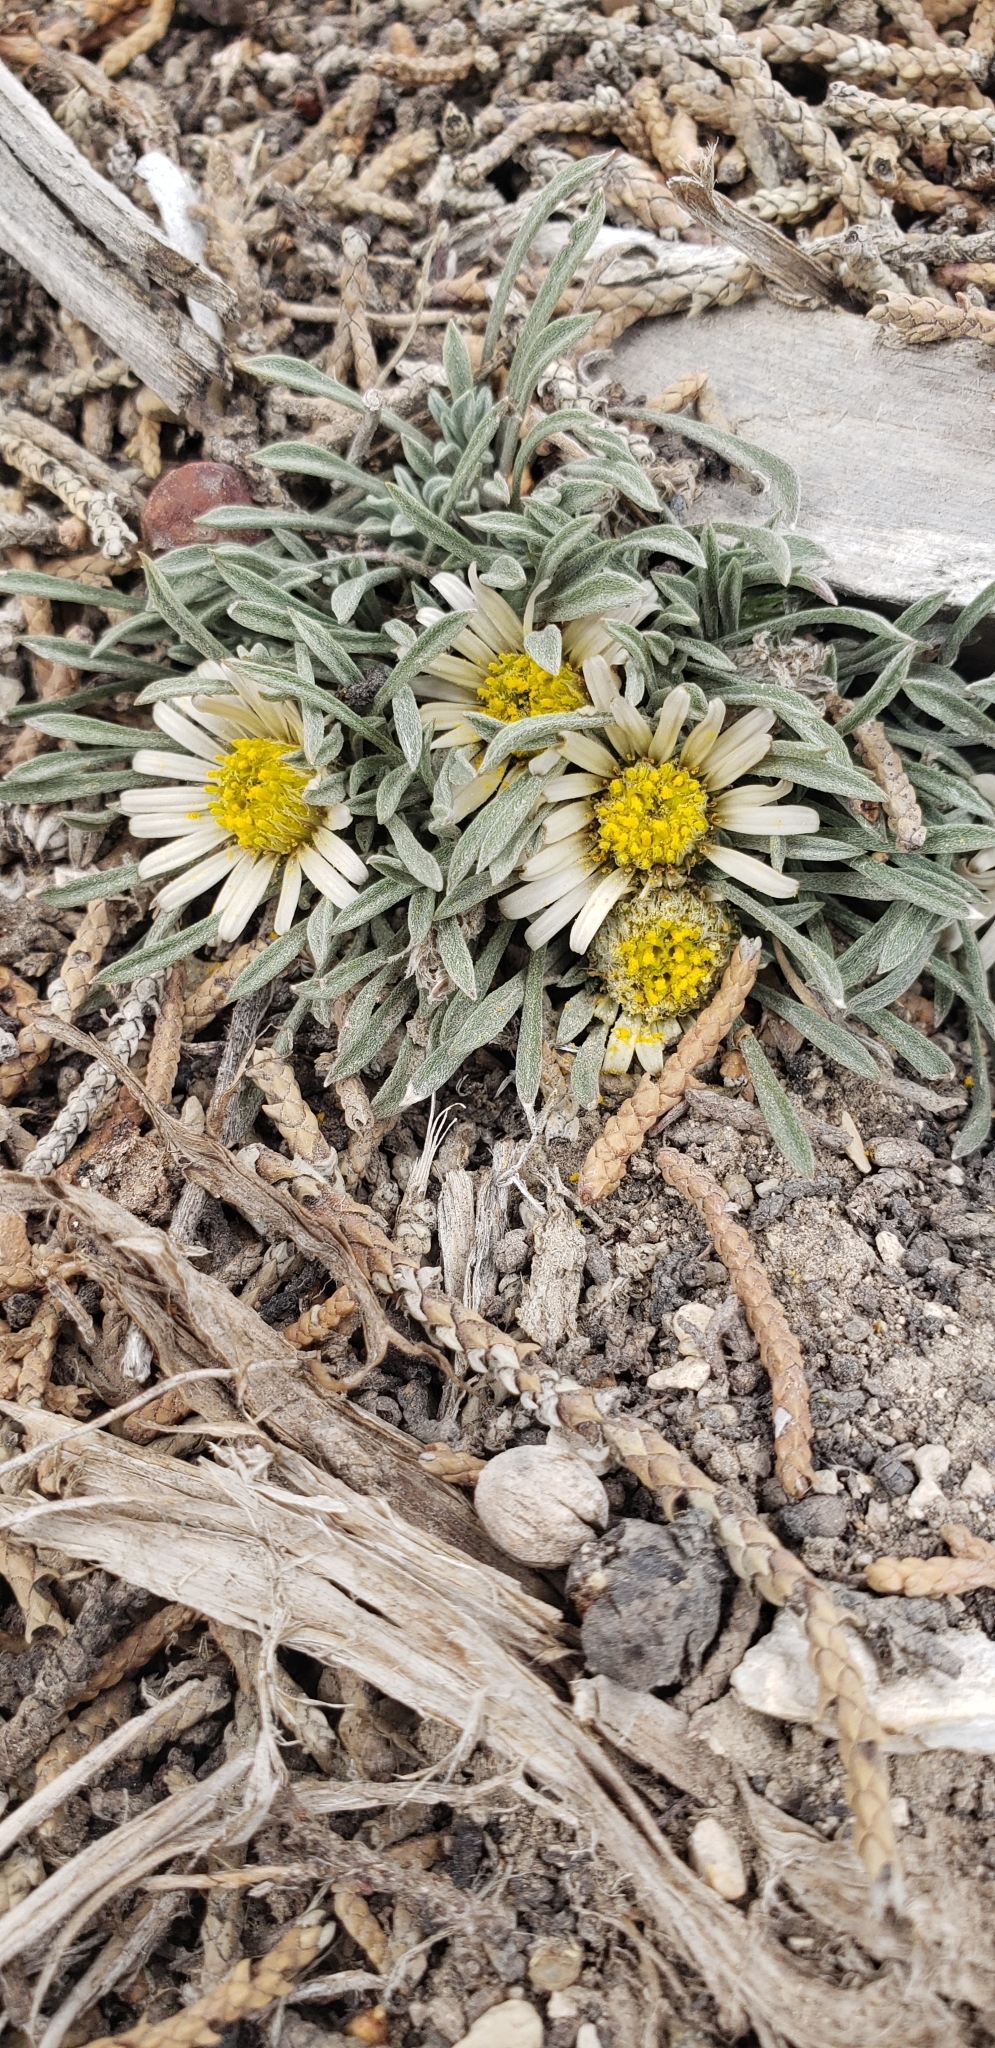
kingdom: Plantae
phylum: Tracheophyta
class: Magnoliopsida
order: Asterales
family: Asteraceae
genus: Townsendia
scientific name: Townsendia jonesii
